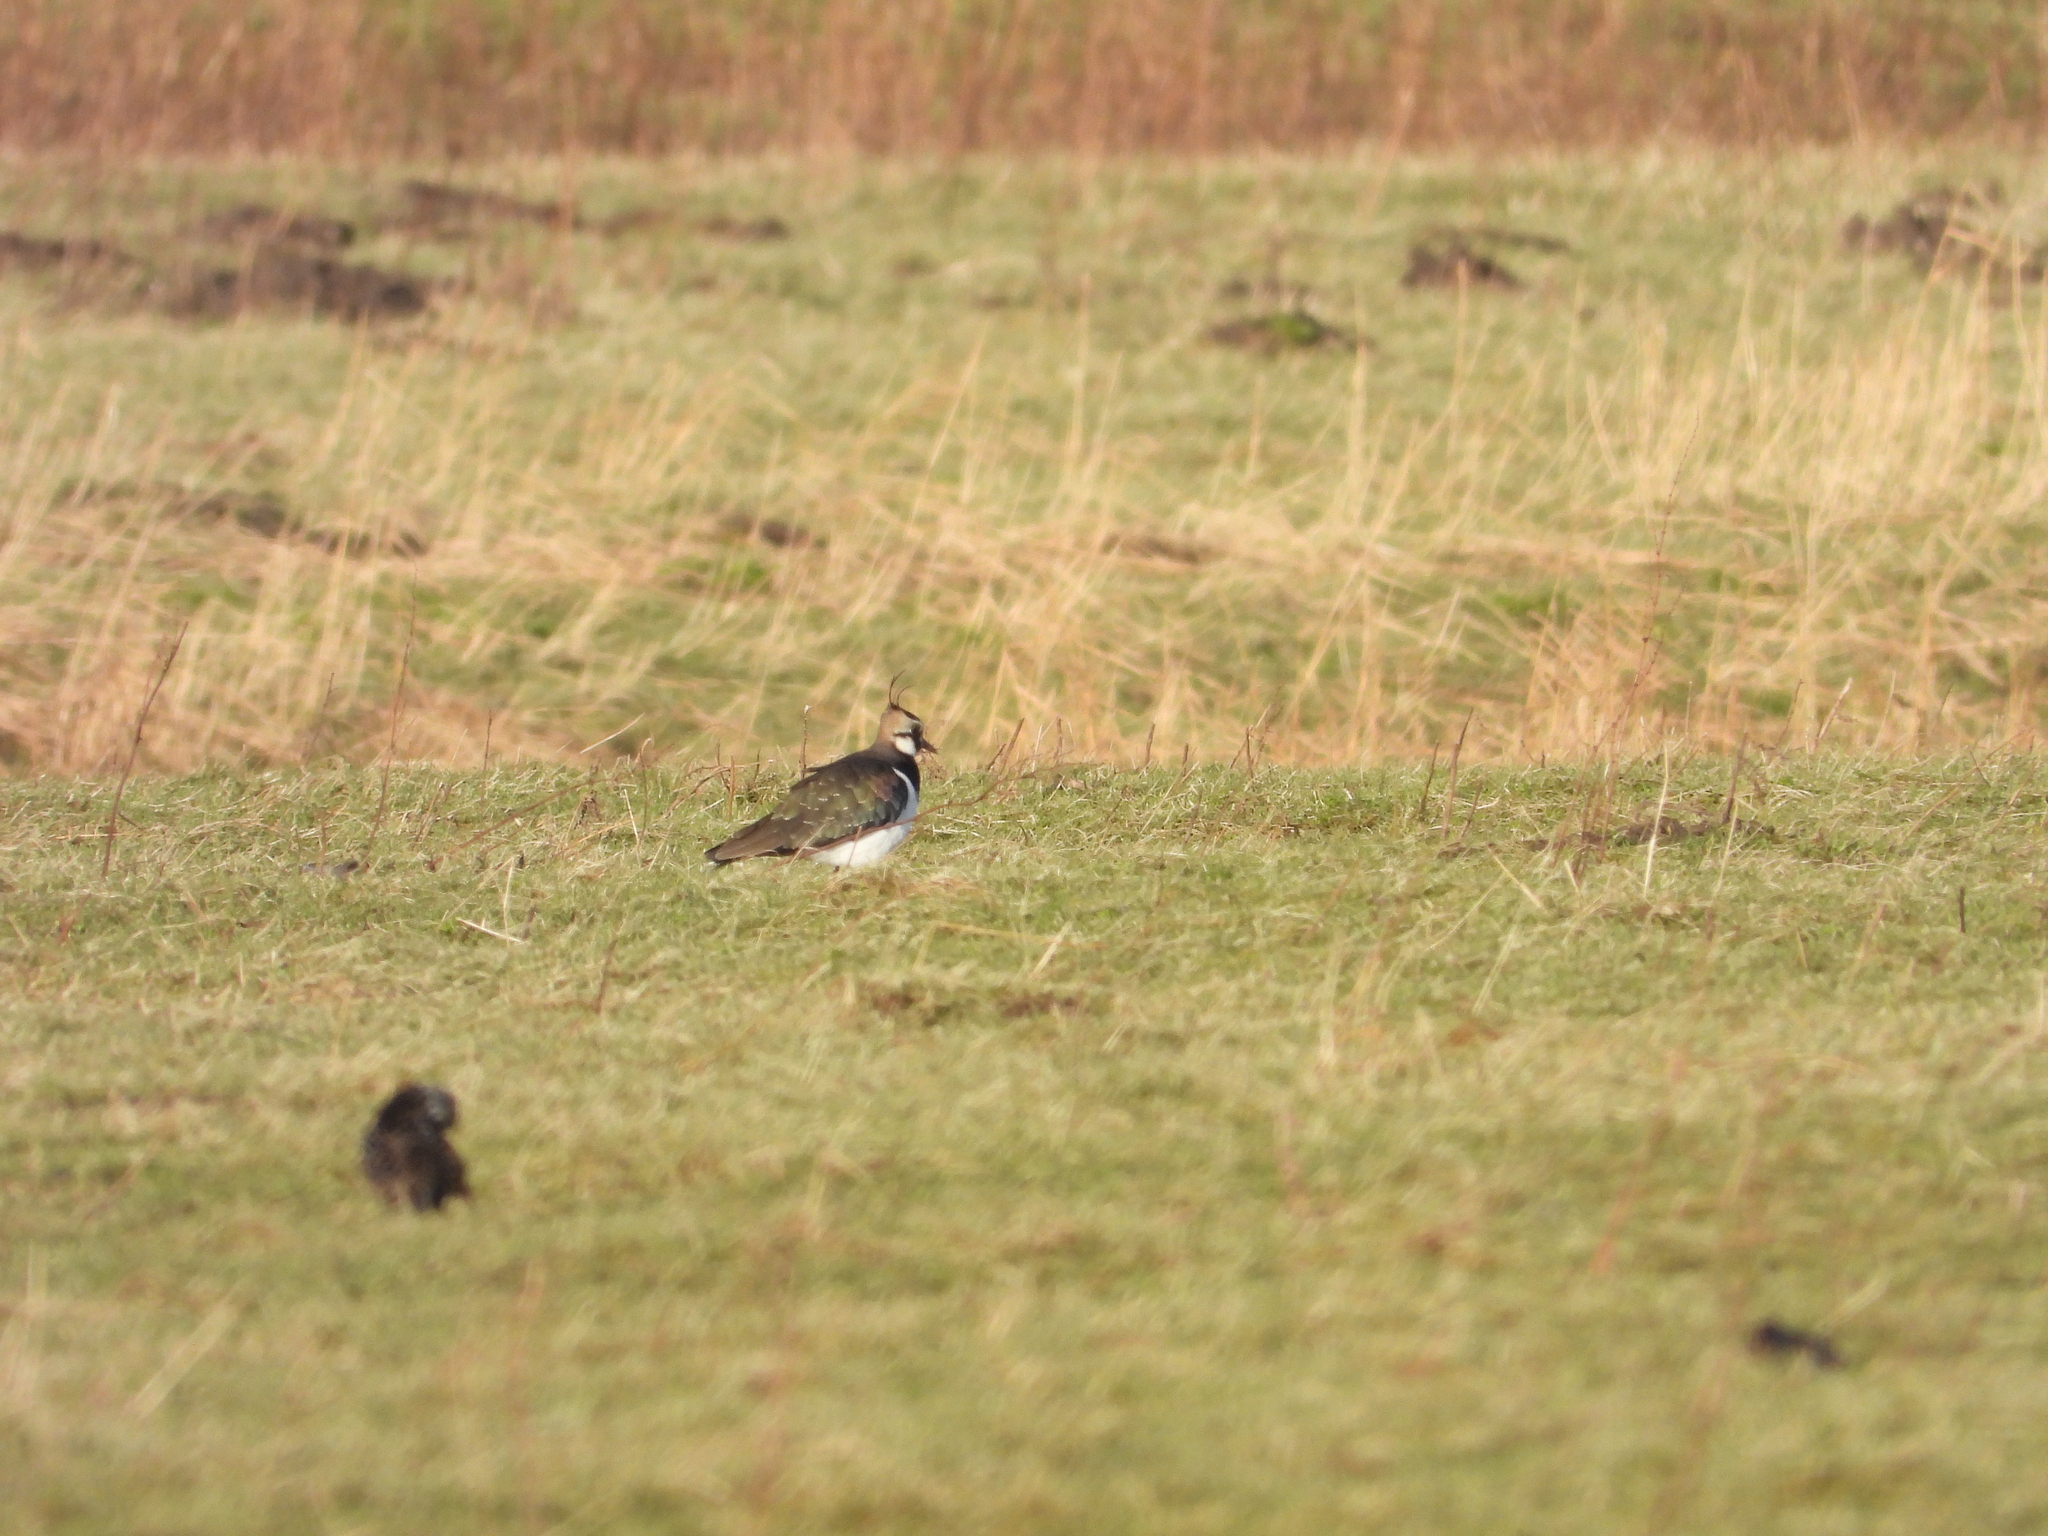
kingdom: Animalia
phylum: Chordata
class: Aves
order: Charadriiformes
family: Charadriidae
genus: Vanellus
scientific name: Vanellus vanellus
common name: Northern lapwing
